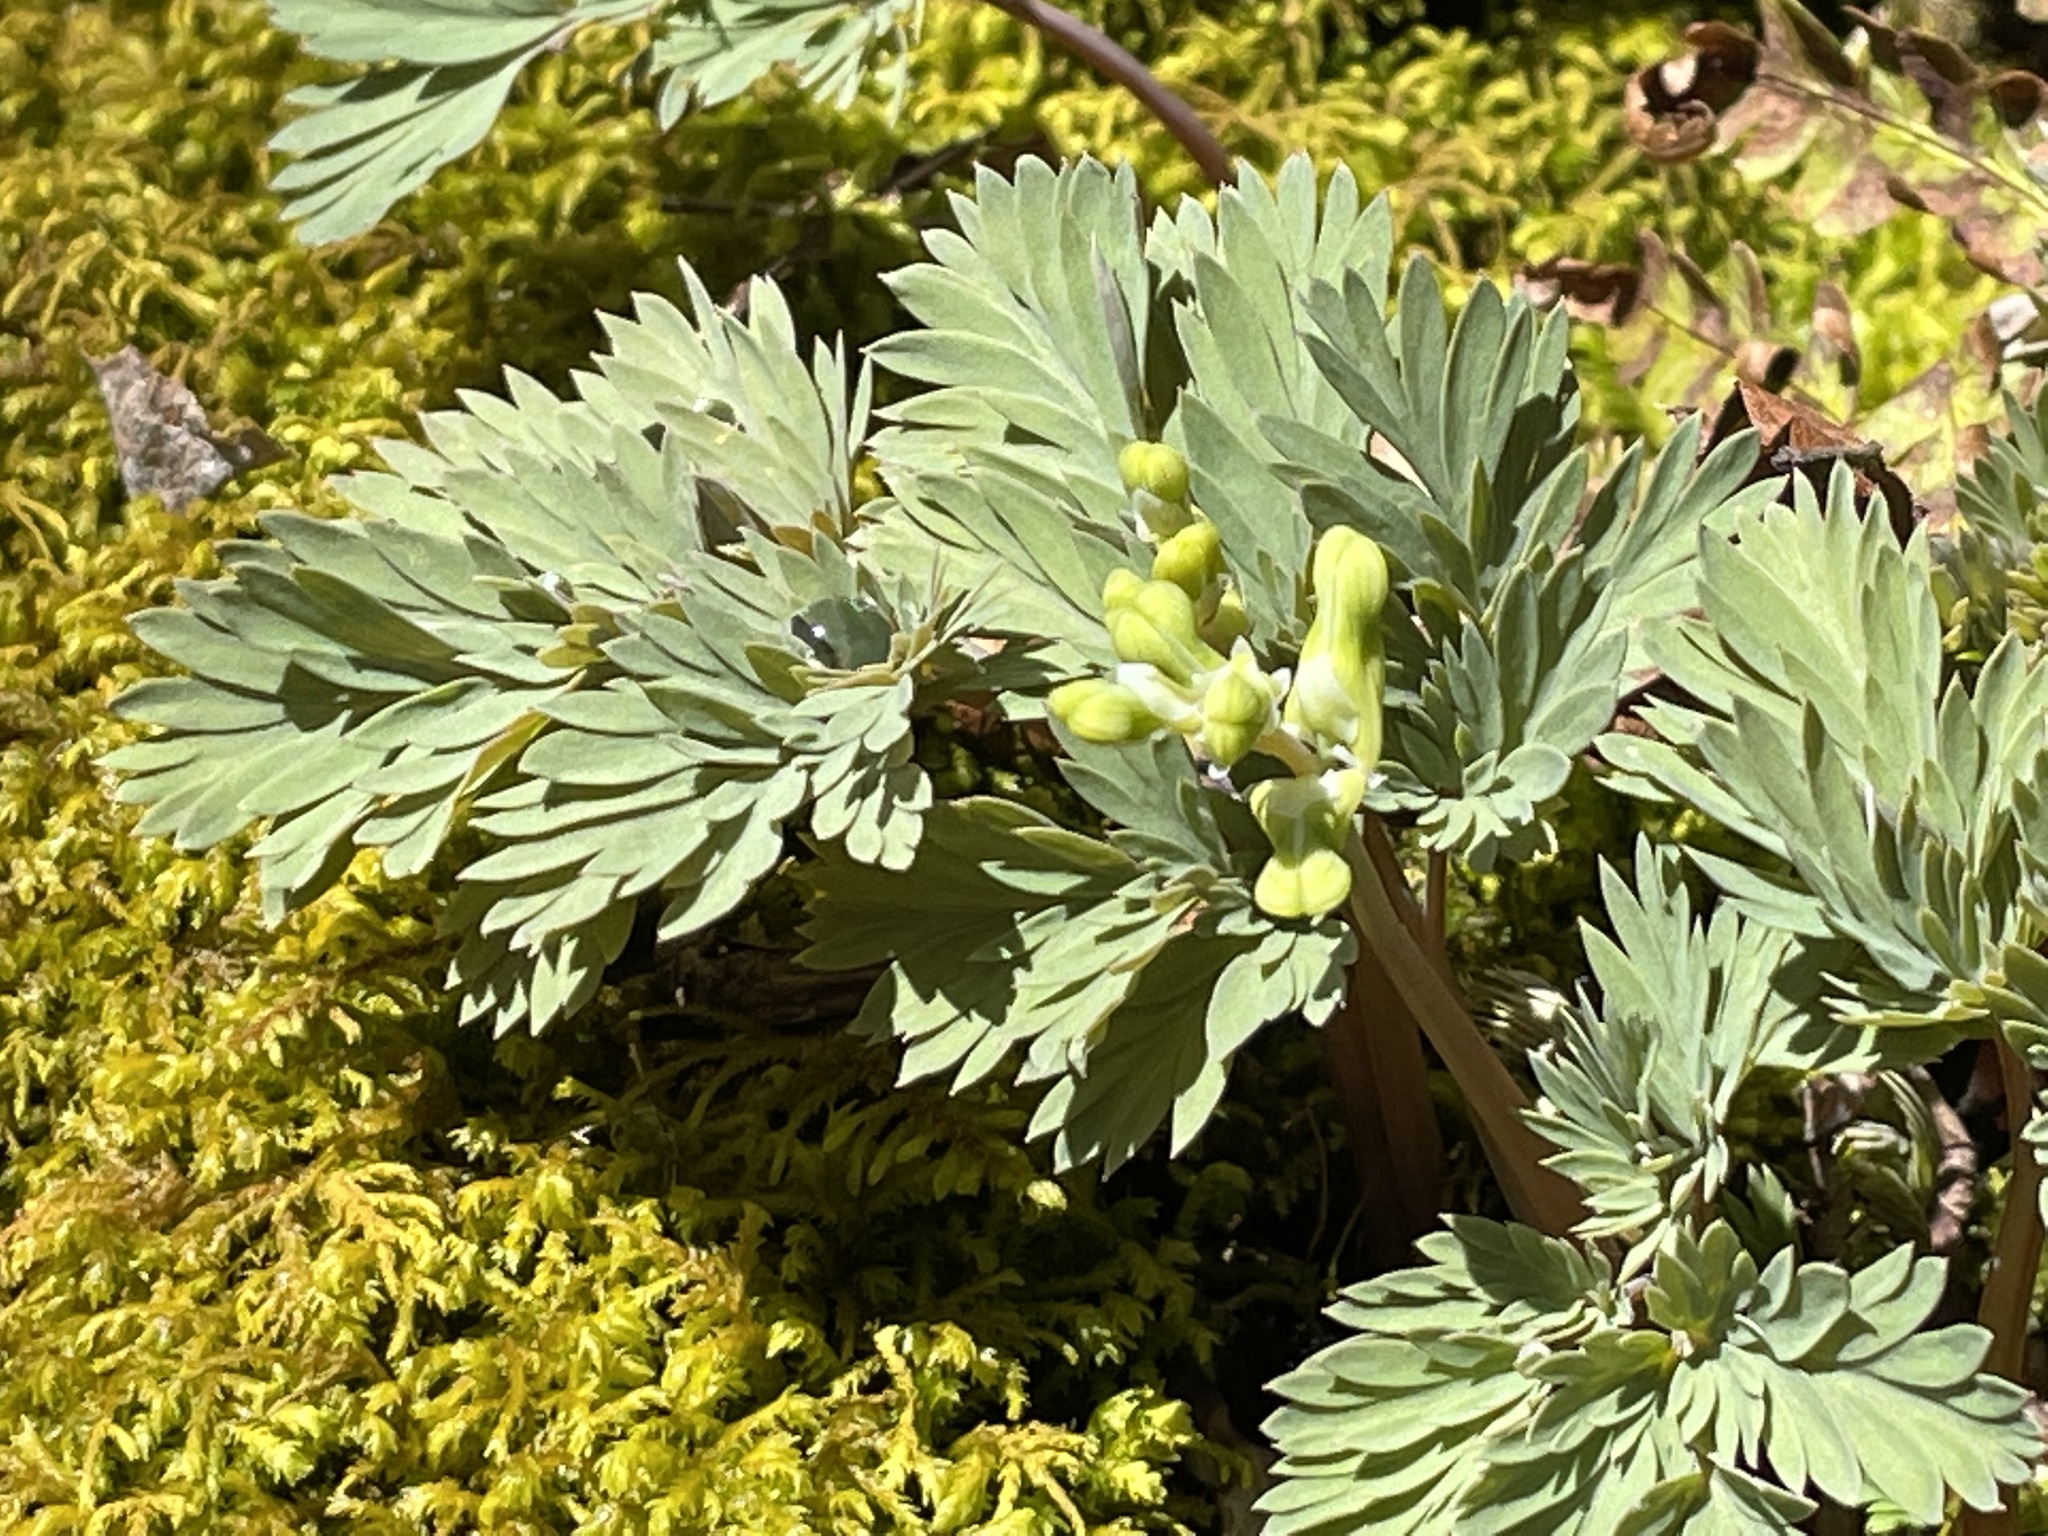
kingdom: Plantae
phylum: Tracheophyta
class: Magnoliopsida
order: Ranunculales
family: Papaveraceae
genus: Dicentra
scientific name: Dicentra cucullaria
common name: Dutchman's breeches
